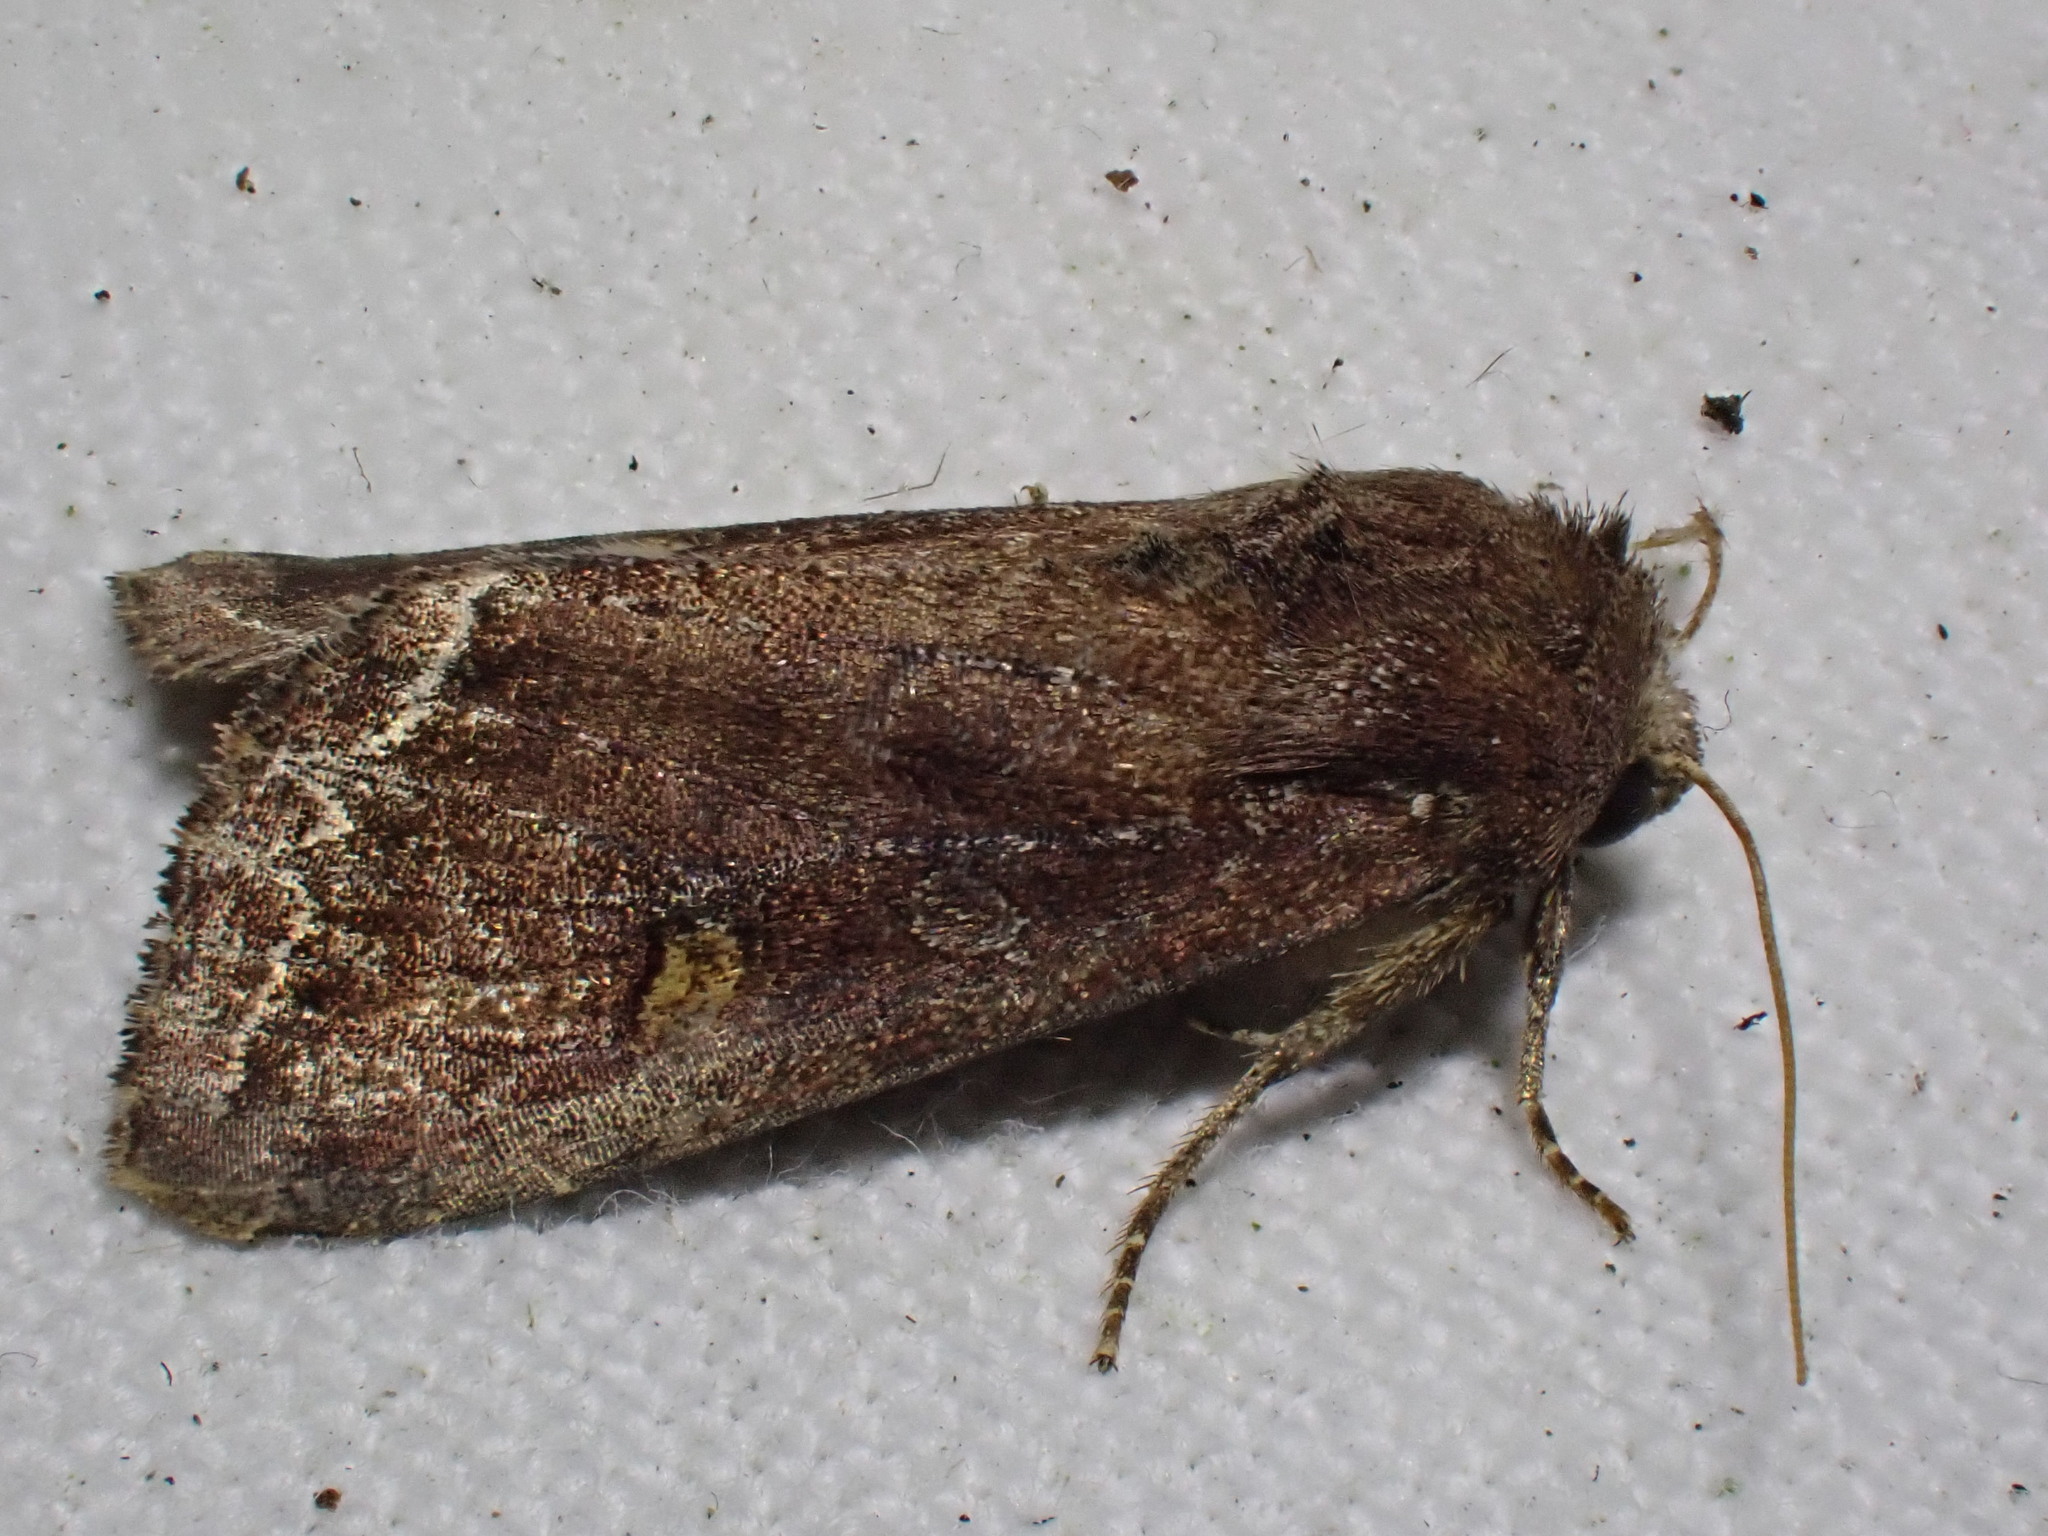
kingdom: Animalia
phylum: Arthropoda
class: Insecta
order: Lepidoptera
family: Noctuidae
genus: Lacanobia
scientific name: Lacanobia oleracea
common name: Bright-line brown-eye
